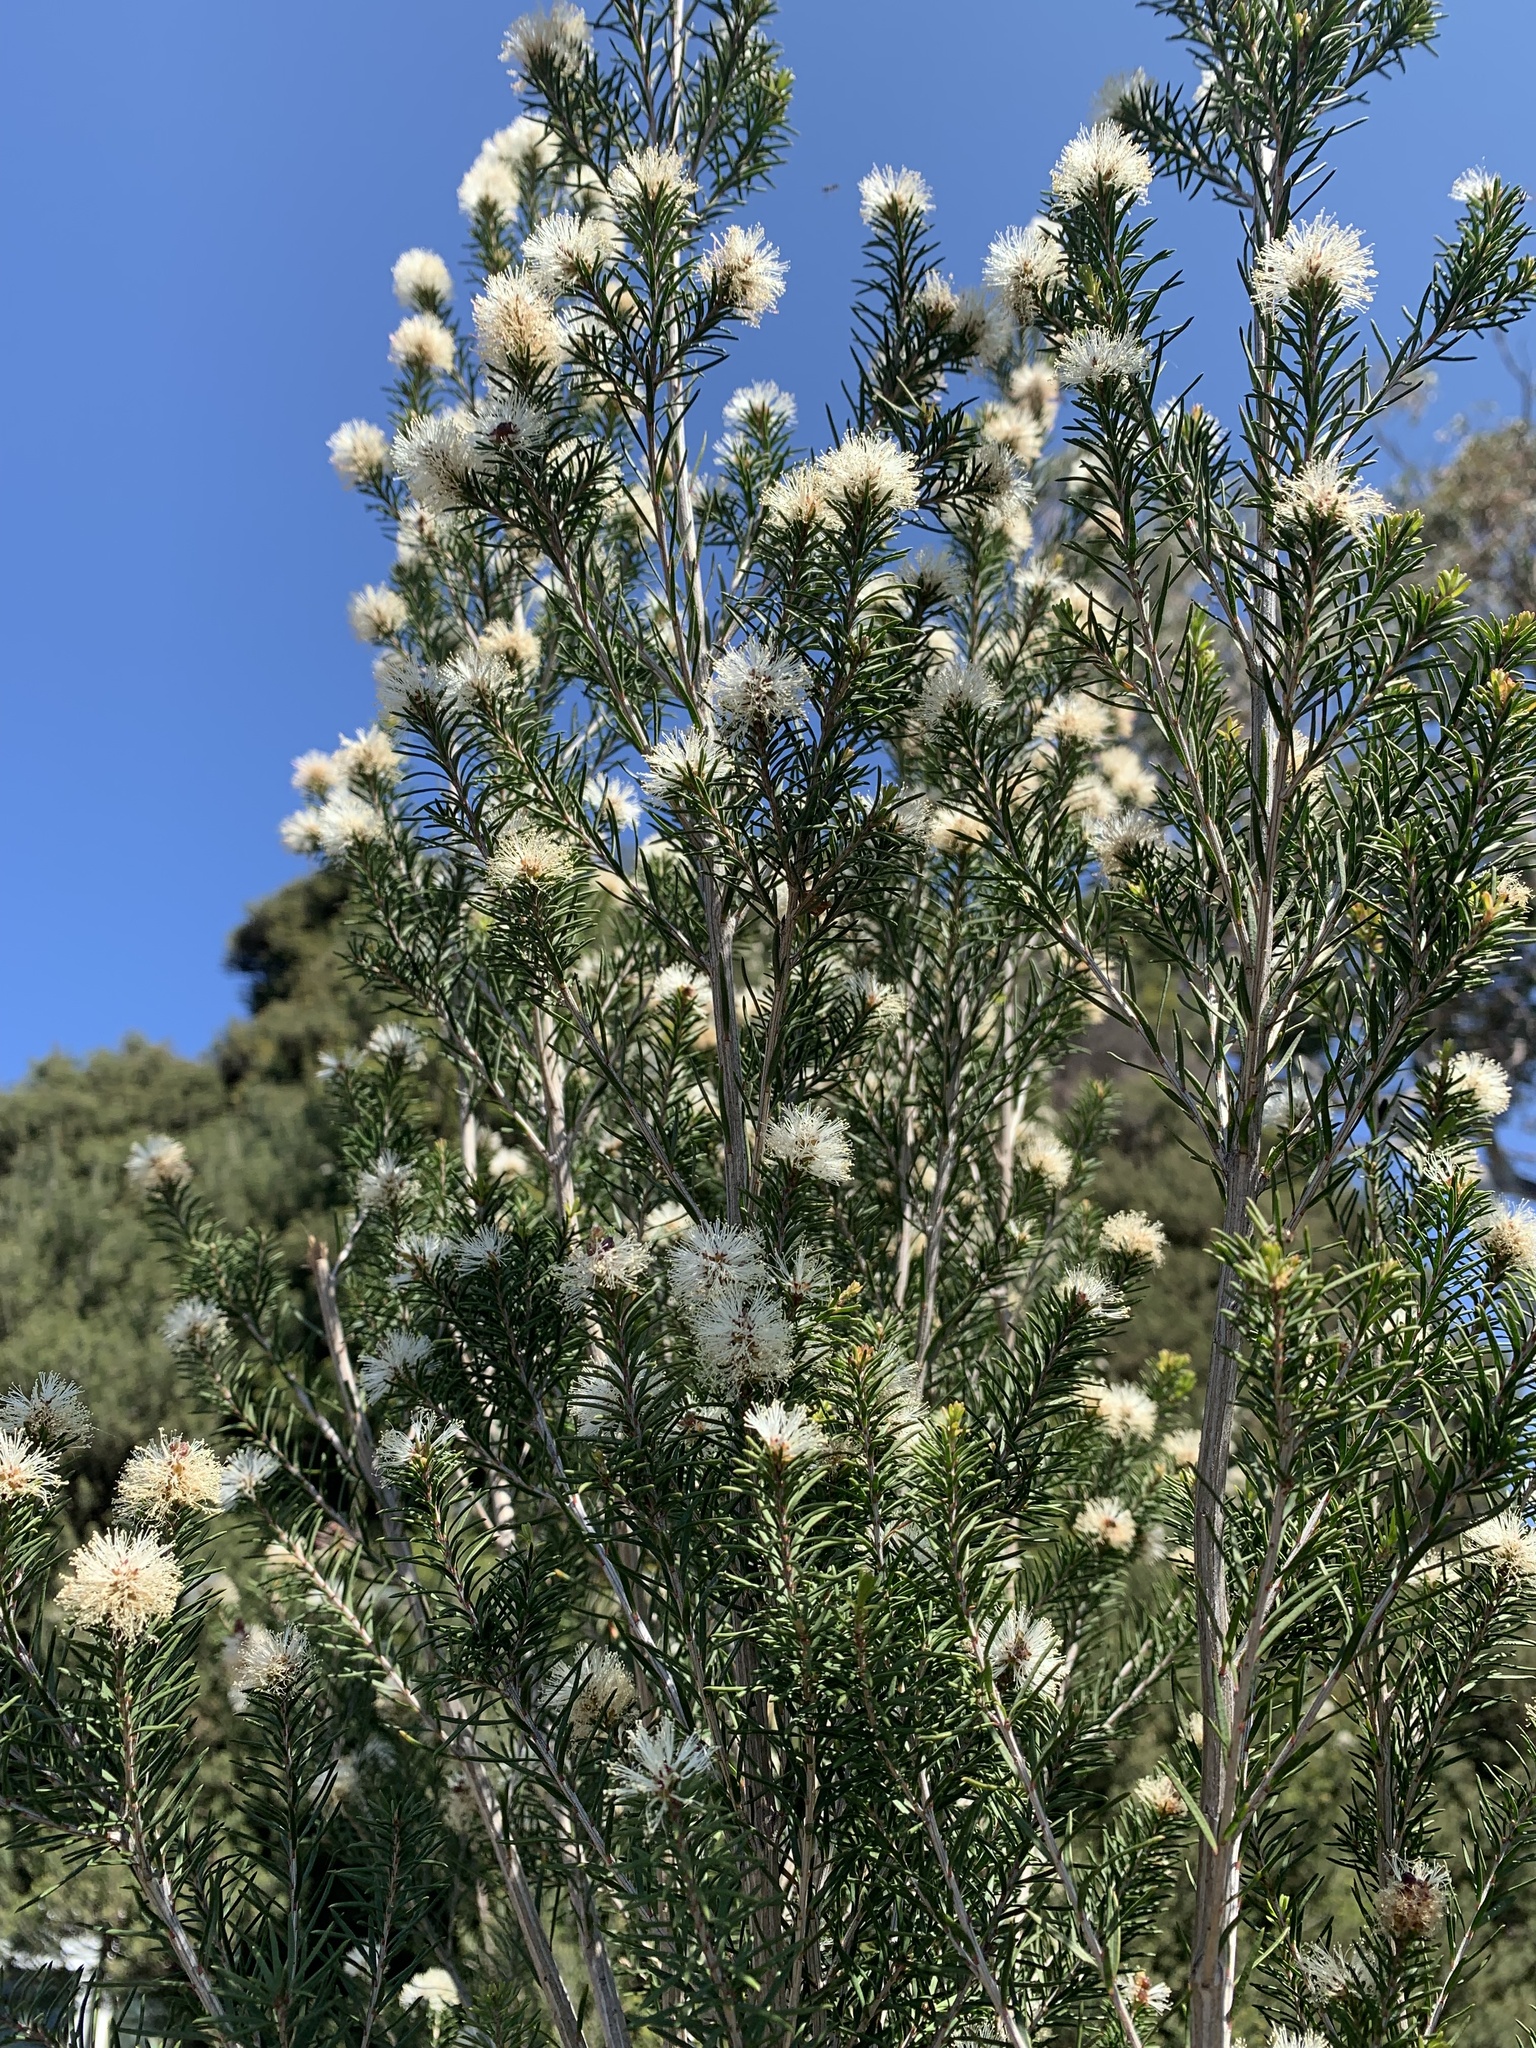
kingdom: Plantae
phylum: Tracheophyta
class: Magnoliopsida
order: Myrtales
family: Myrtaceae
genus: Melaleuca
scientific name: Melaleuca ericifolia
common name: Paperbark teatree
